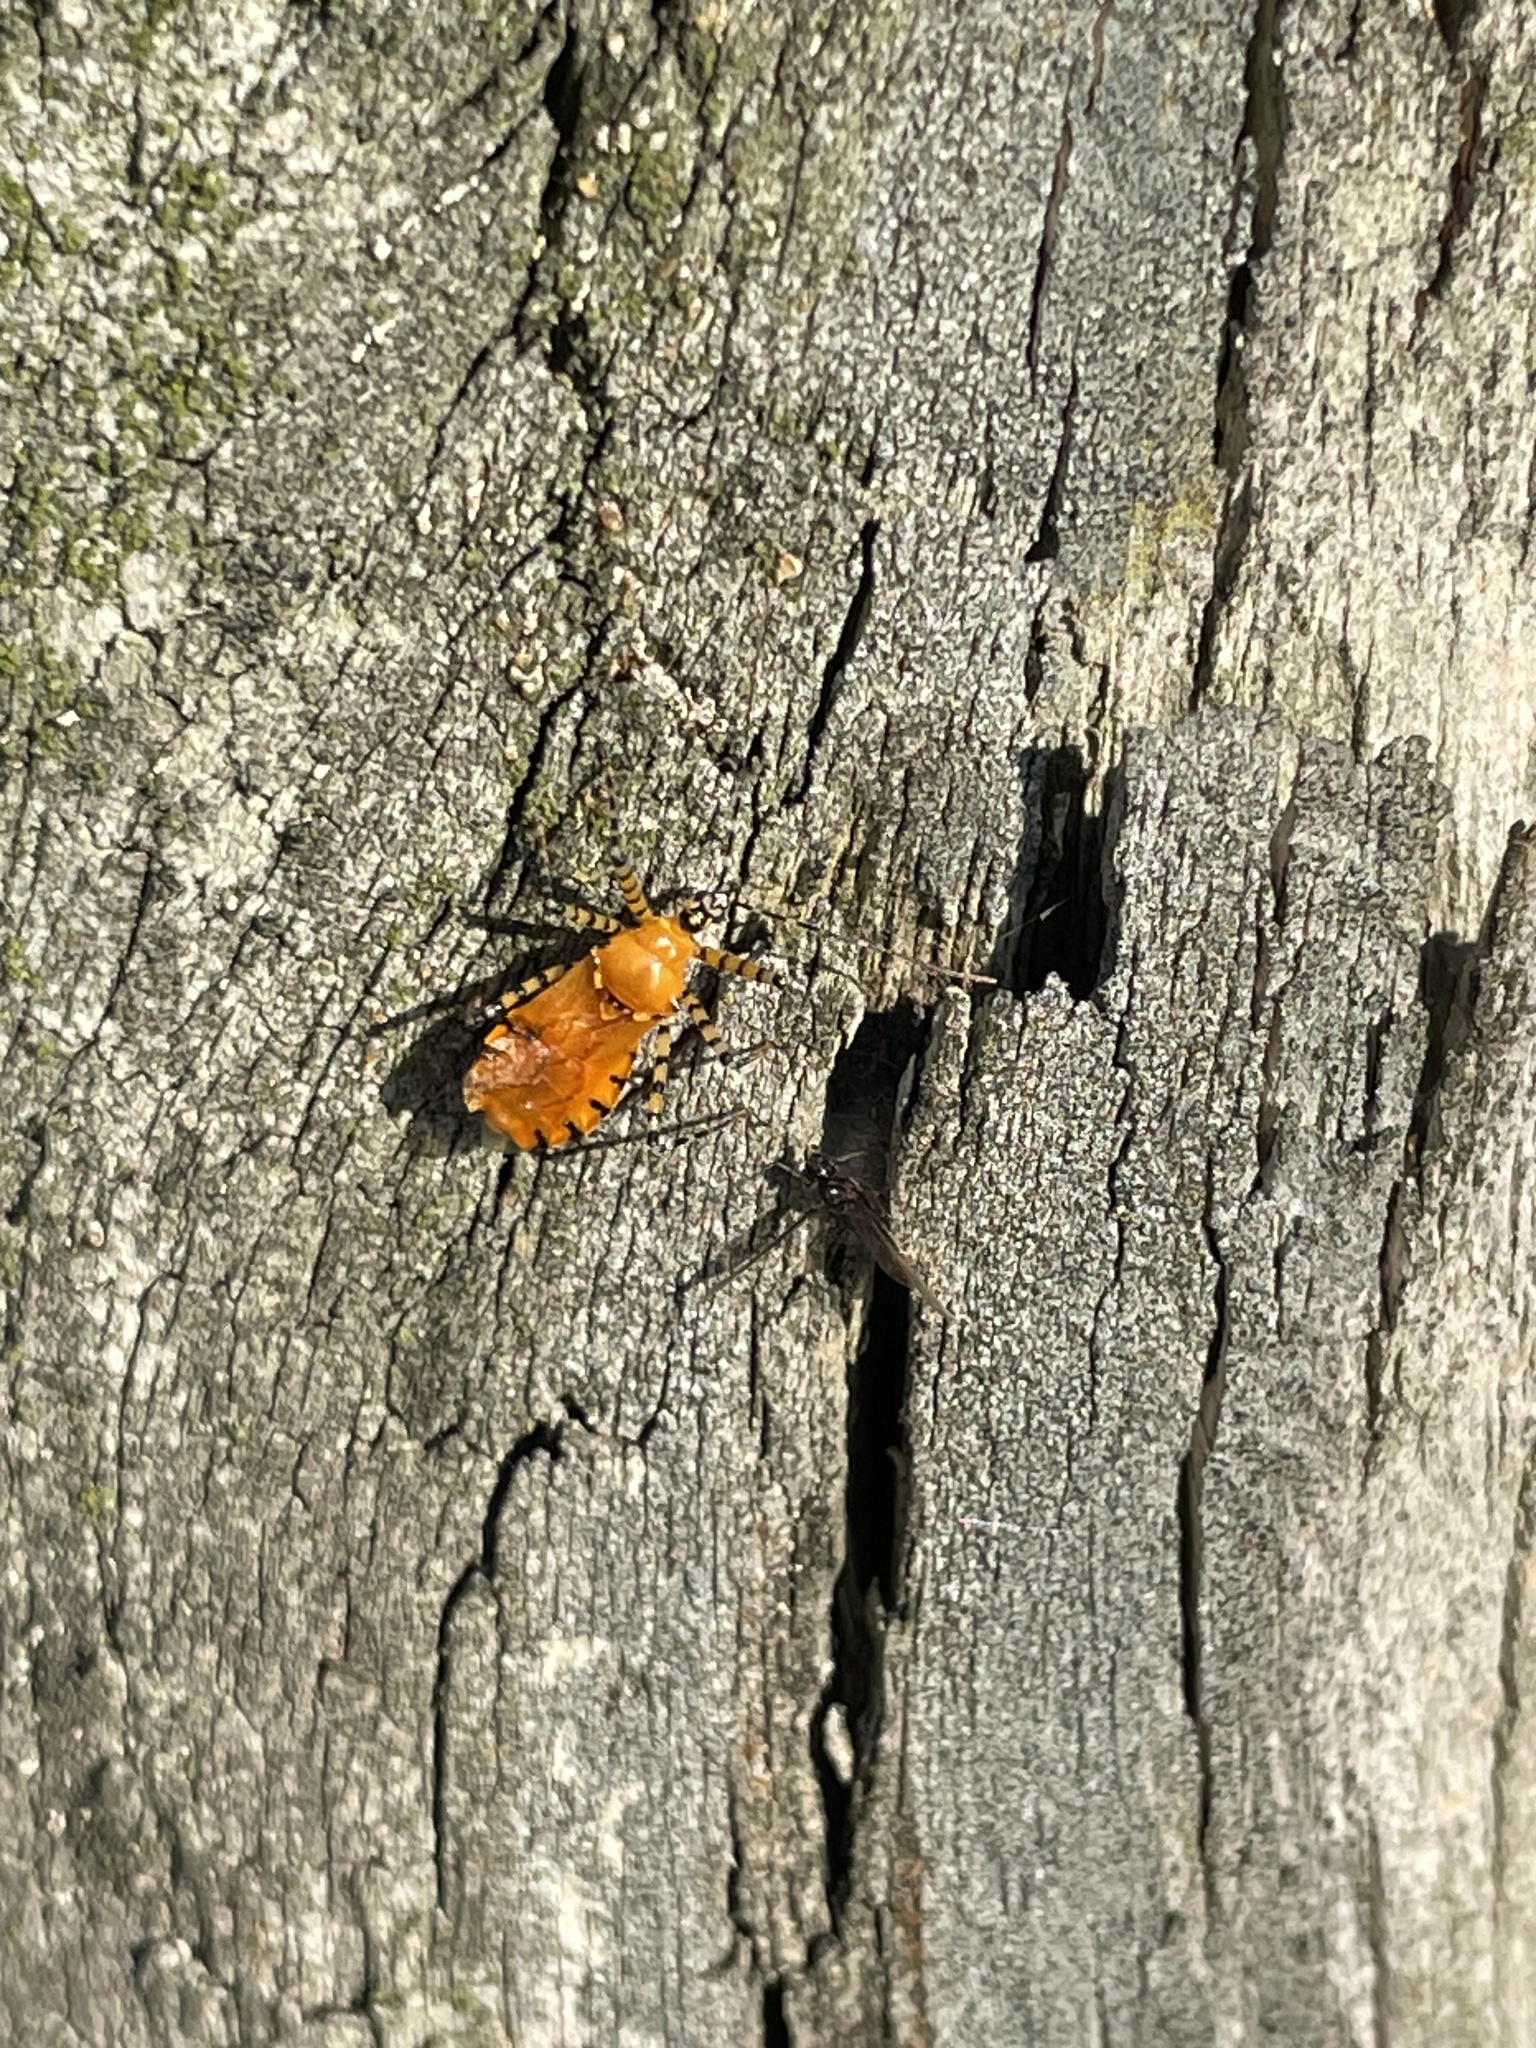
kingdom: Animalia
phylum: Arthropoda
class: Insecta
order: Hemiptera
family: Reduviidae
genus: Pselliopus
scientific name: Pselliopus barberi
